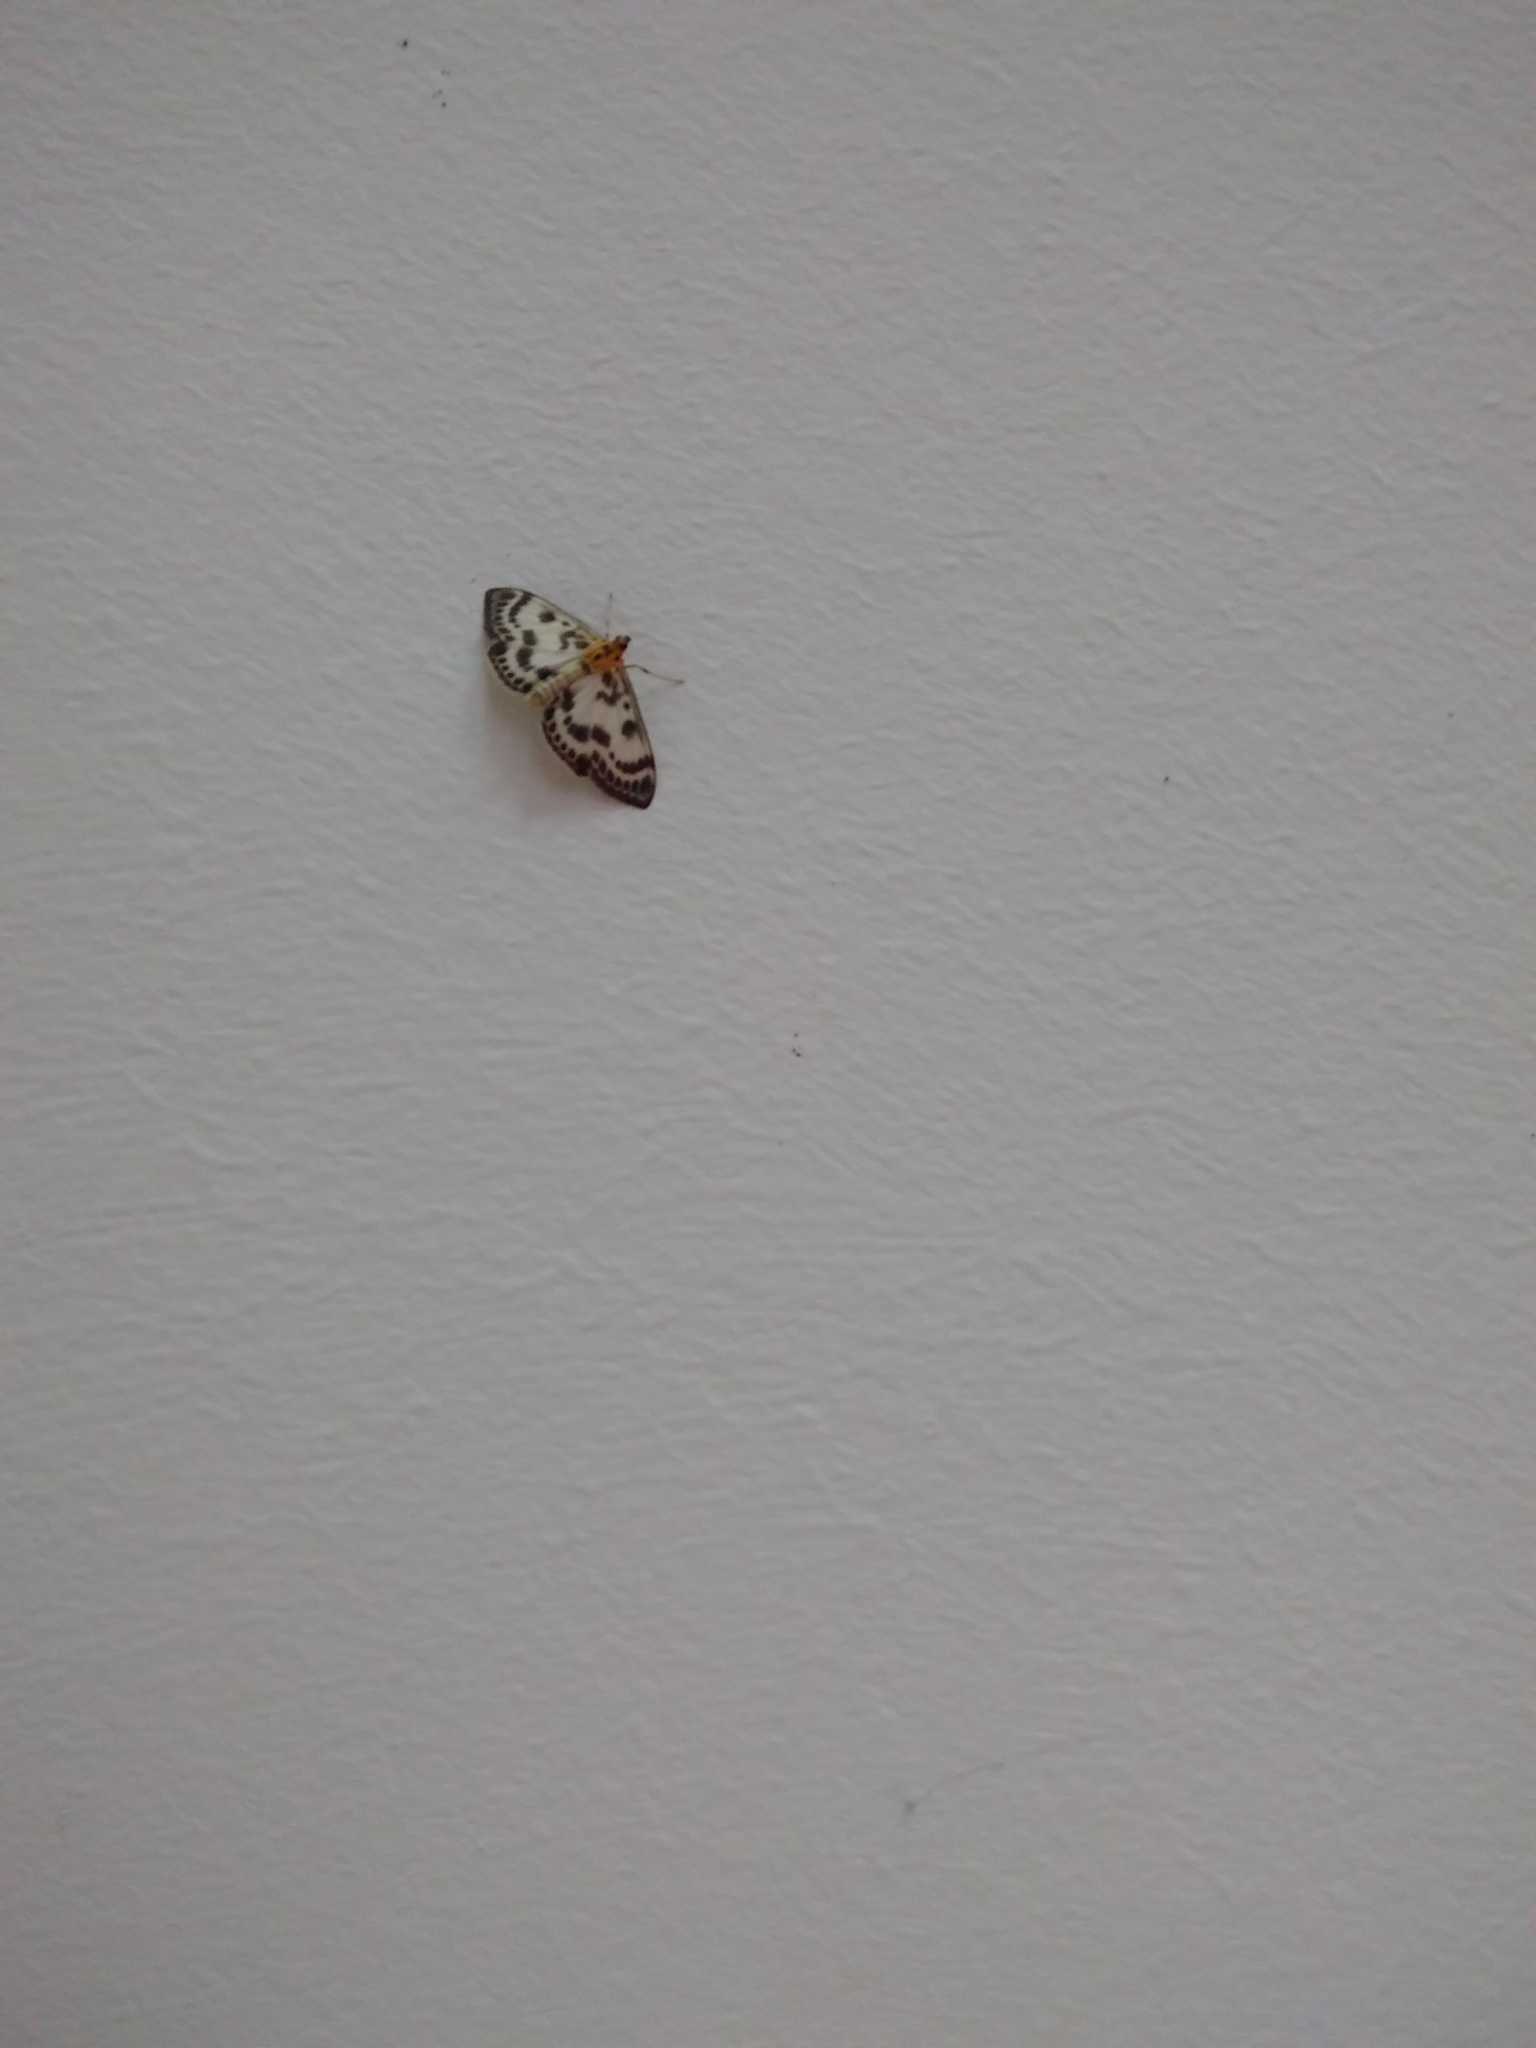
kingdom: Animalia
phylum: Arthropoda
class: Insecta
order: Lepidoptera
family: Crambidae
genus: Anania
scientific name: Anania hortulata
